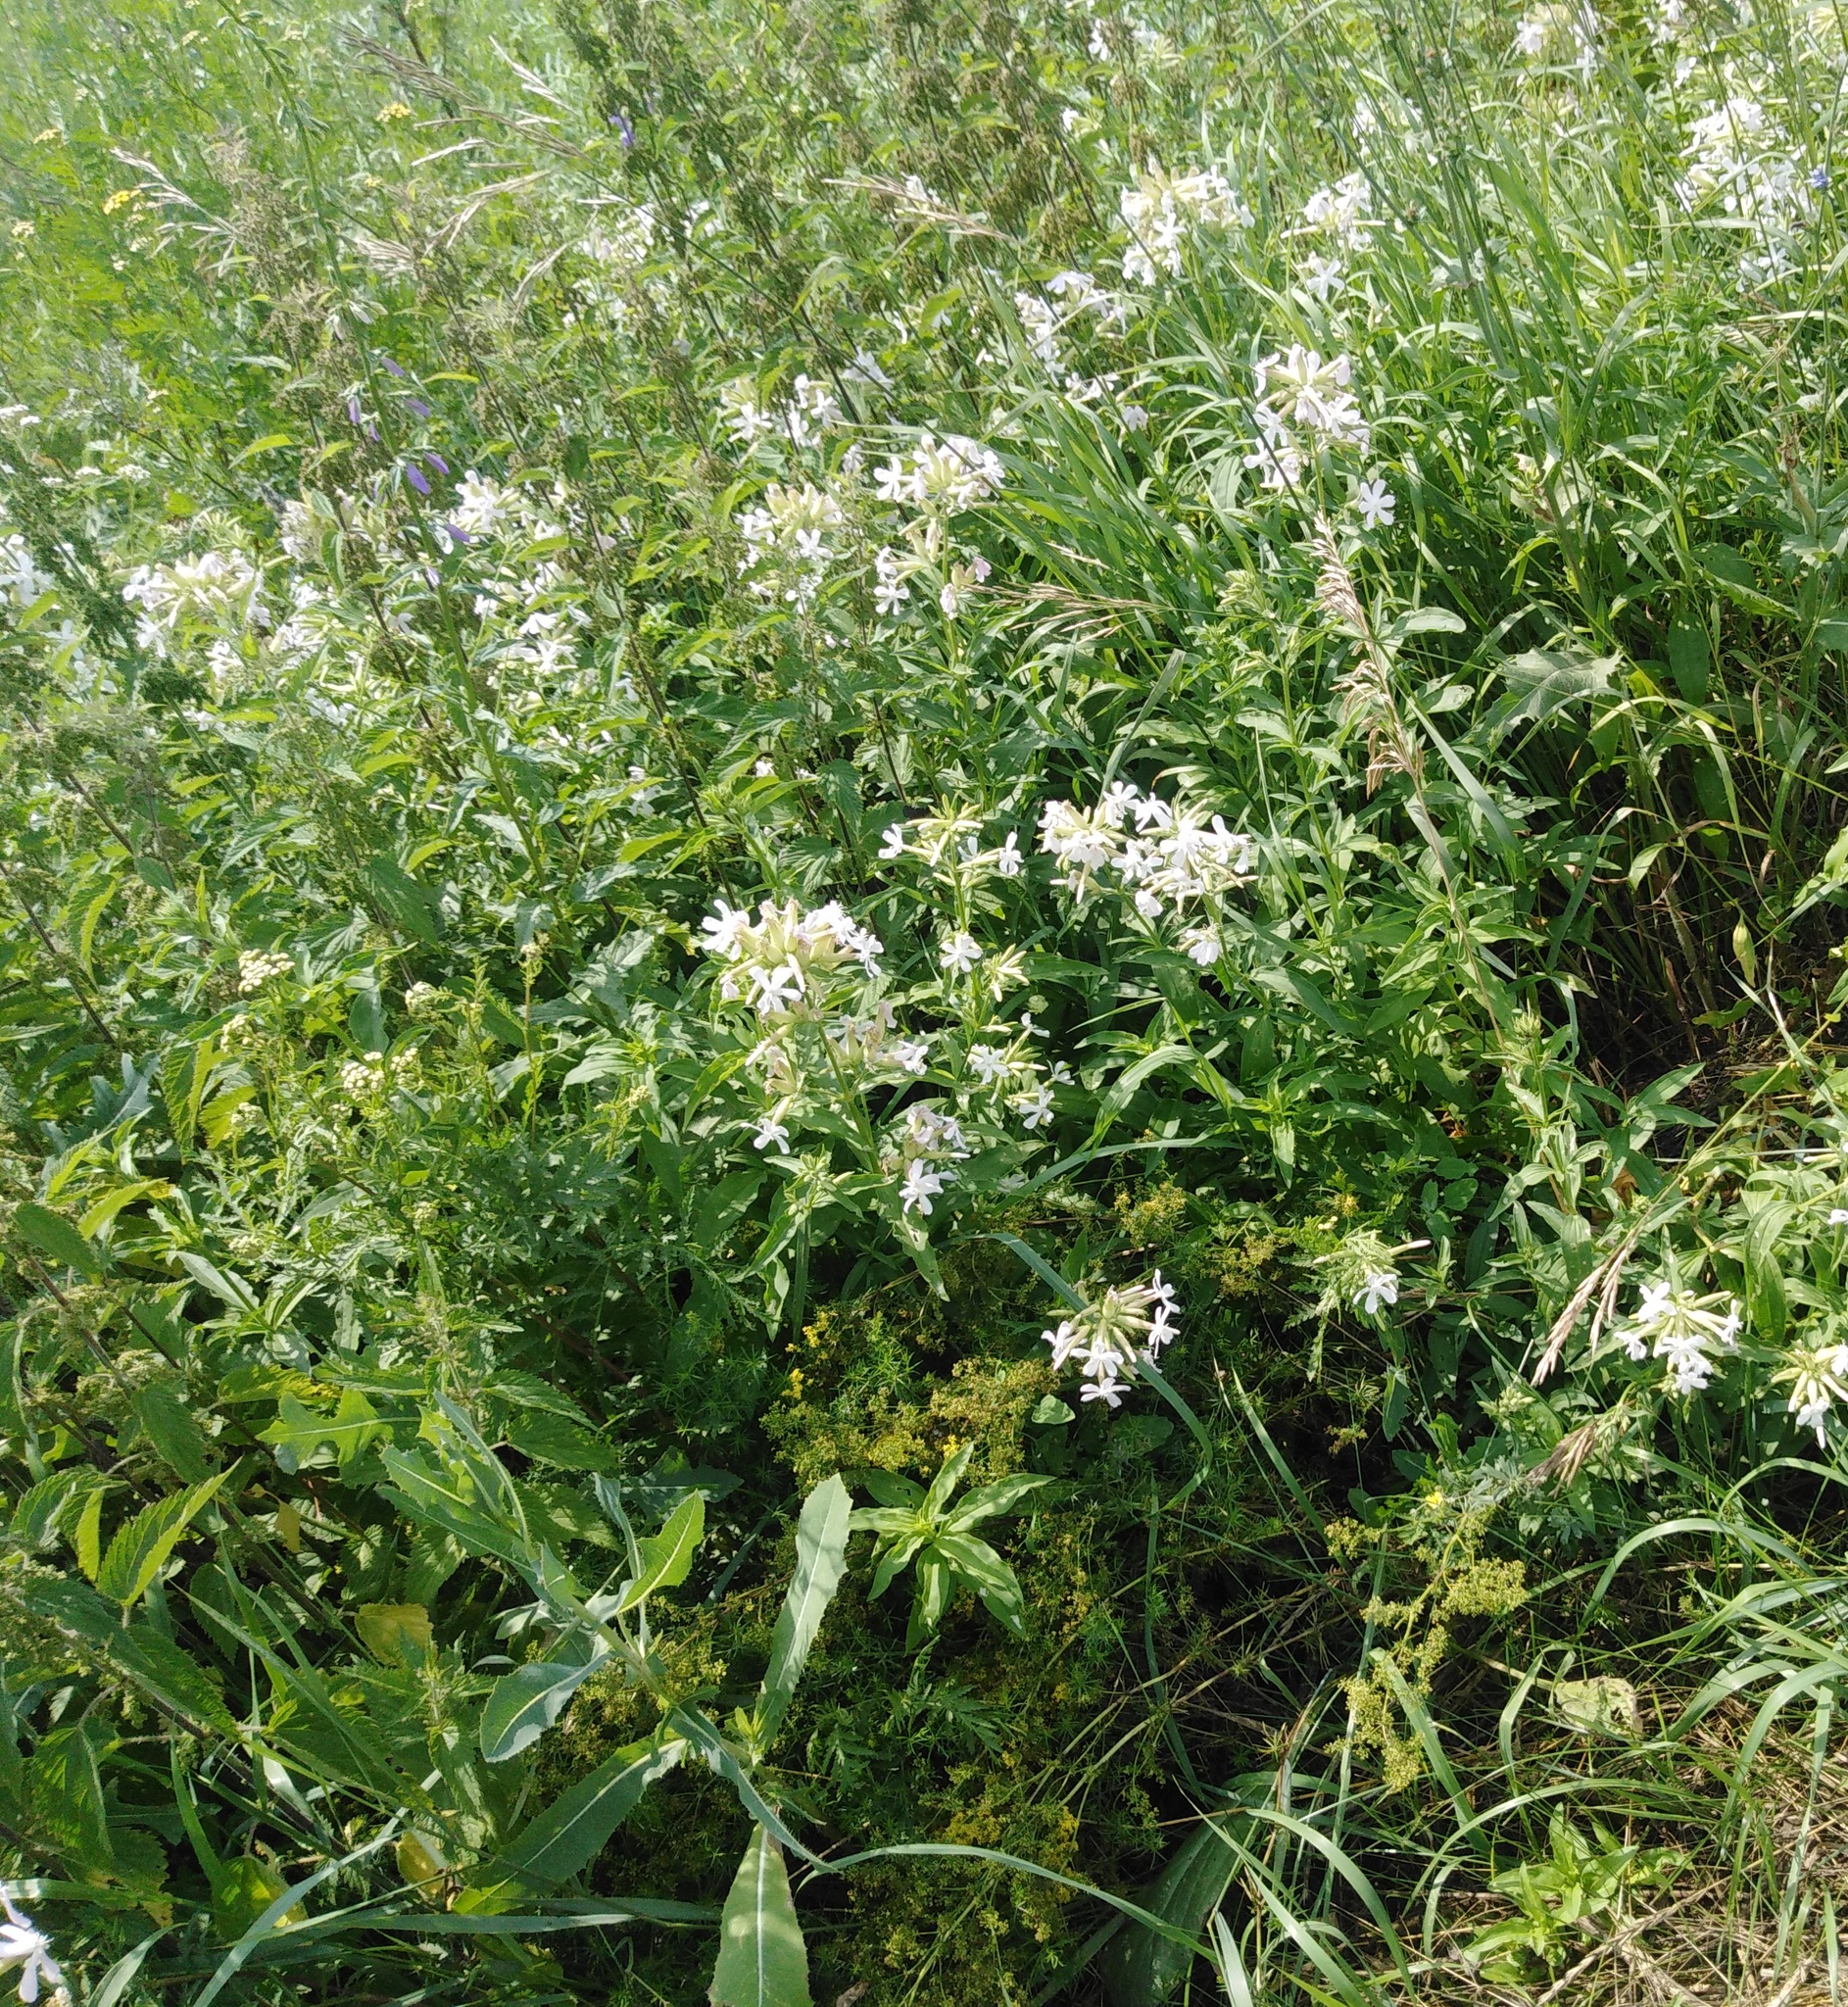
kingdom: Plantae
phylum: Tracheophyta
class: Magnoliopsida
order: Caryophyllales
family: Caryophyllaceae
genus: Saponaria
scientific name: Saponaria officinalis
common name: Soapwort
